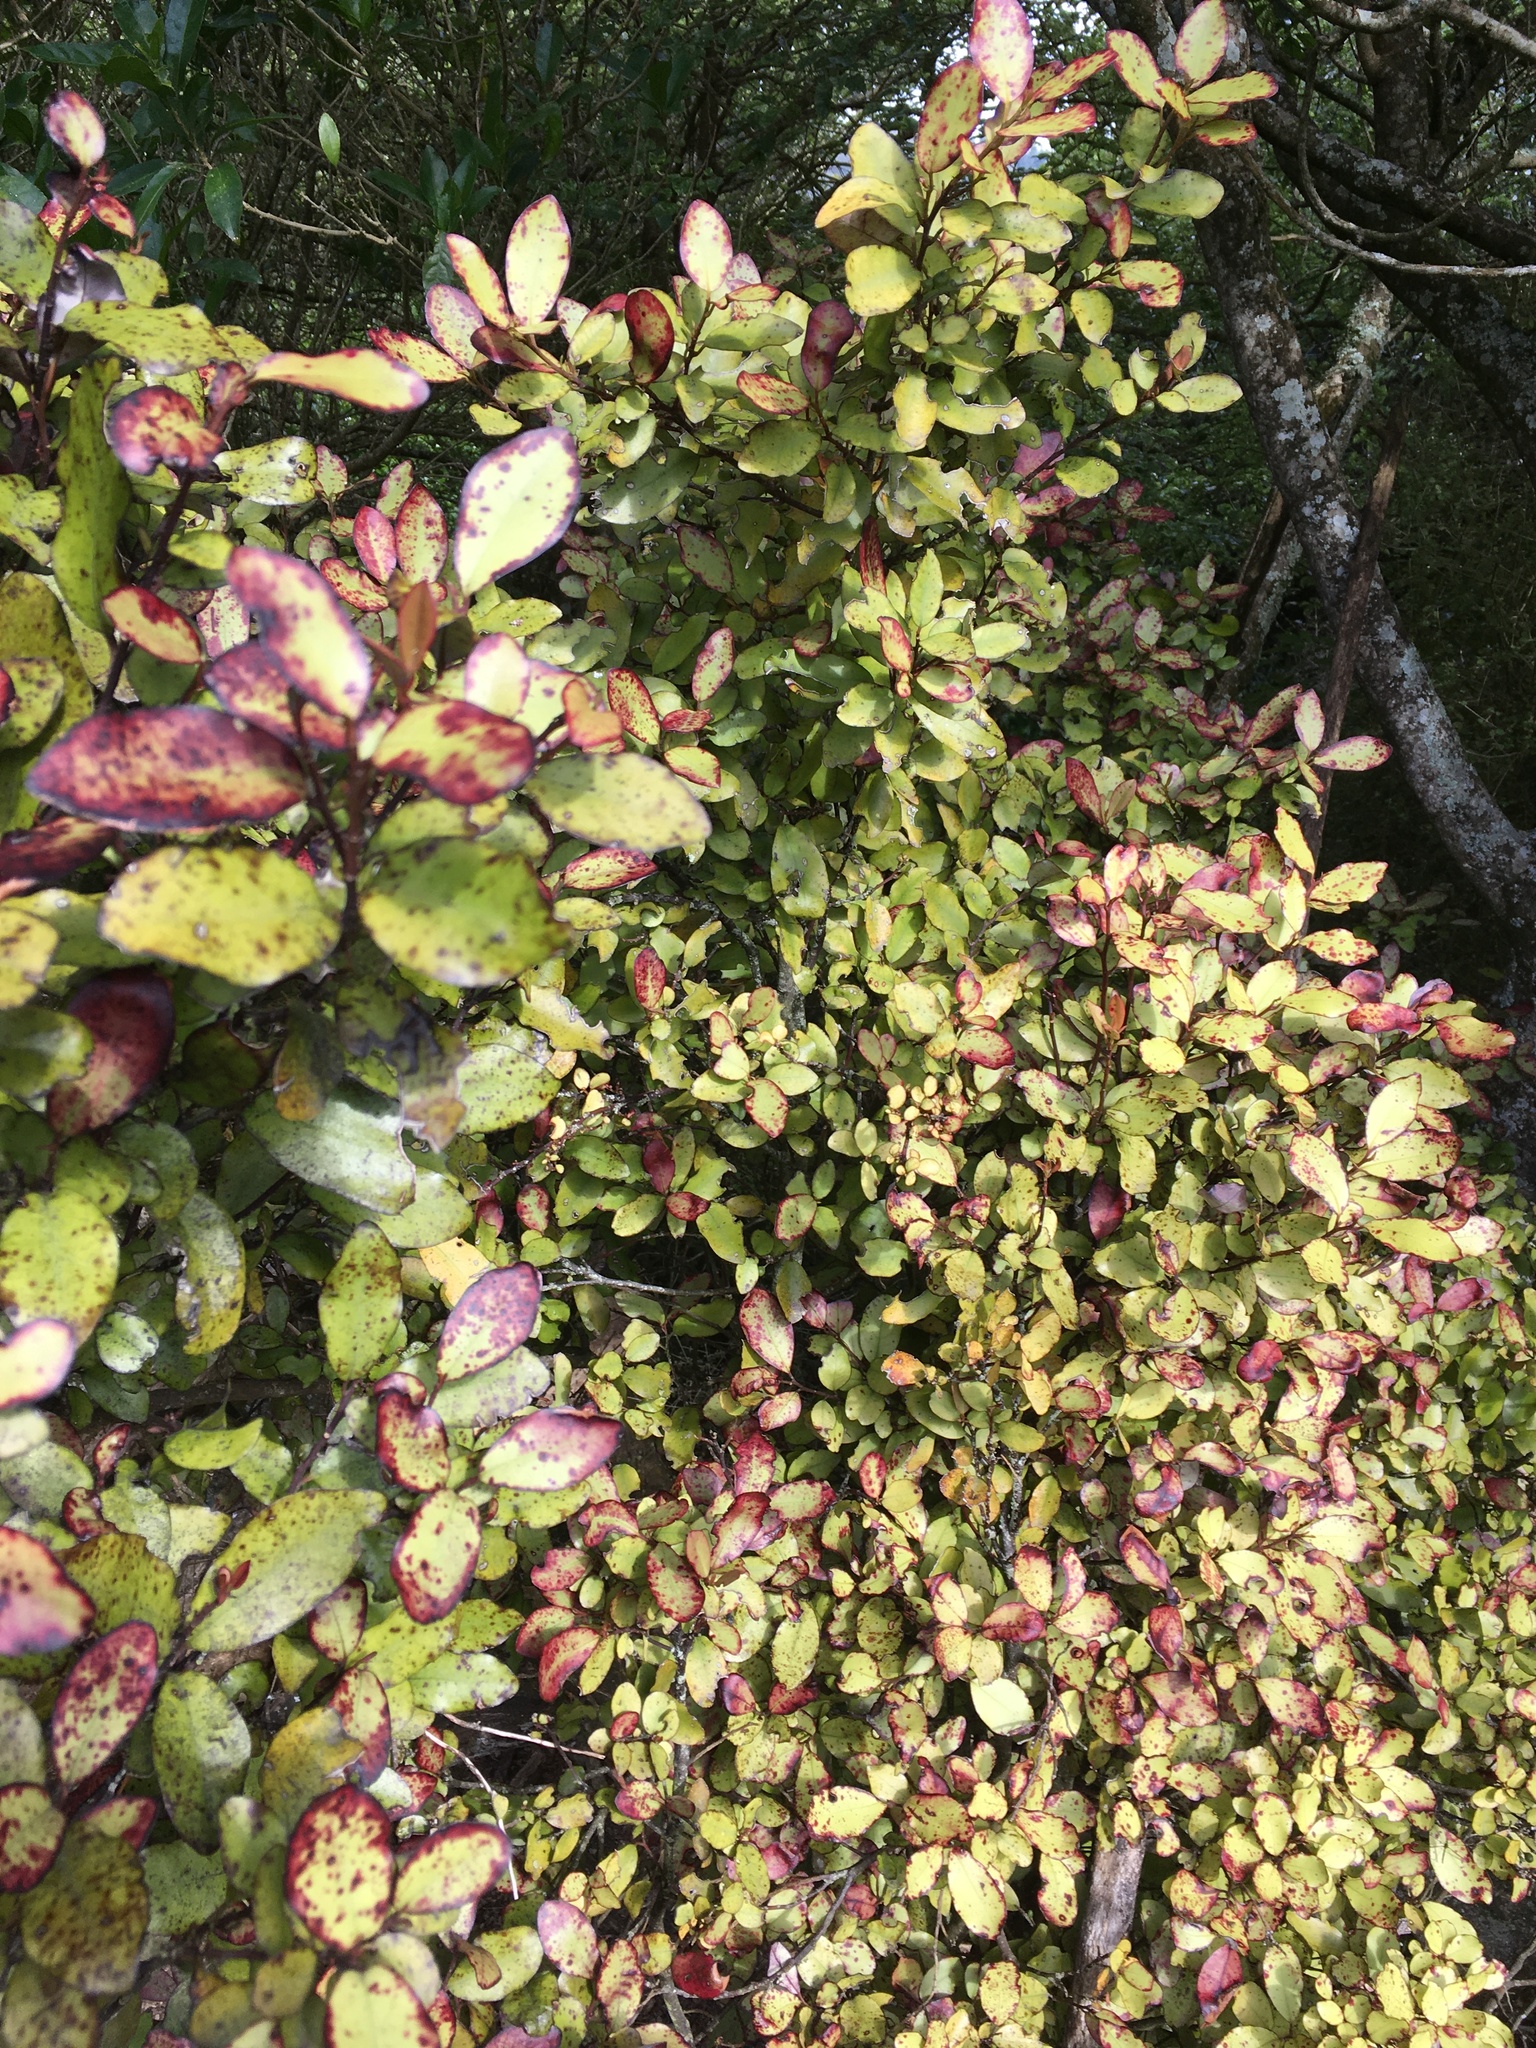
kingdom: Plantae
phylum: Tracheophyta
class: Magnoliopsida
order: Canellales
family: Winteraceae
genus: Pseudowintera
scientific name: Pseudowintera colorata
